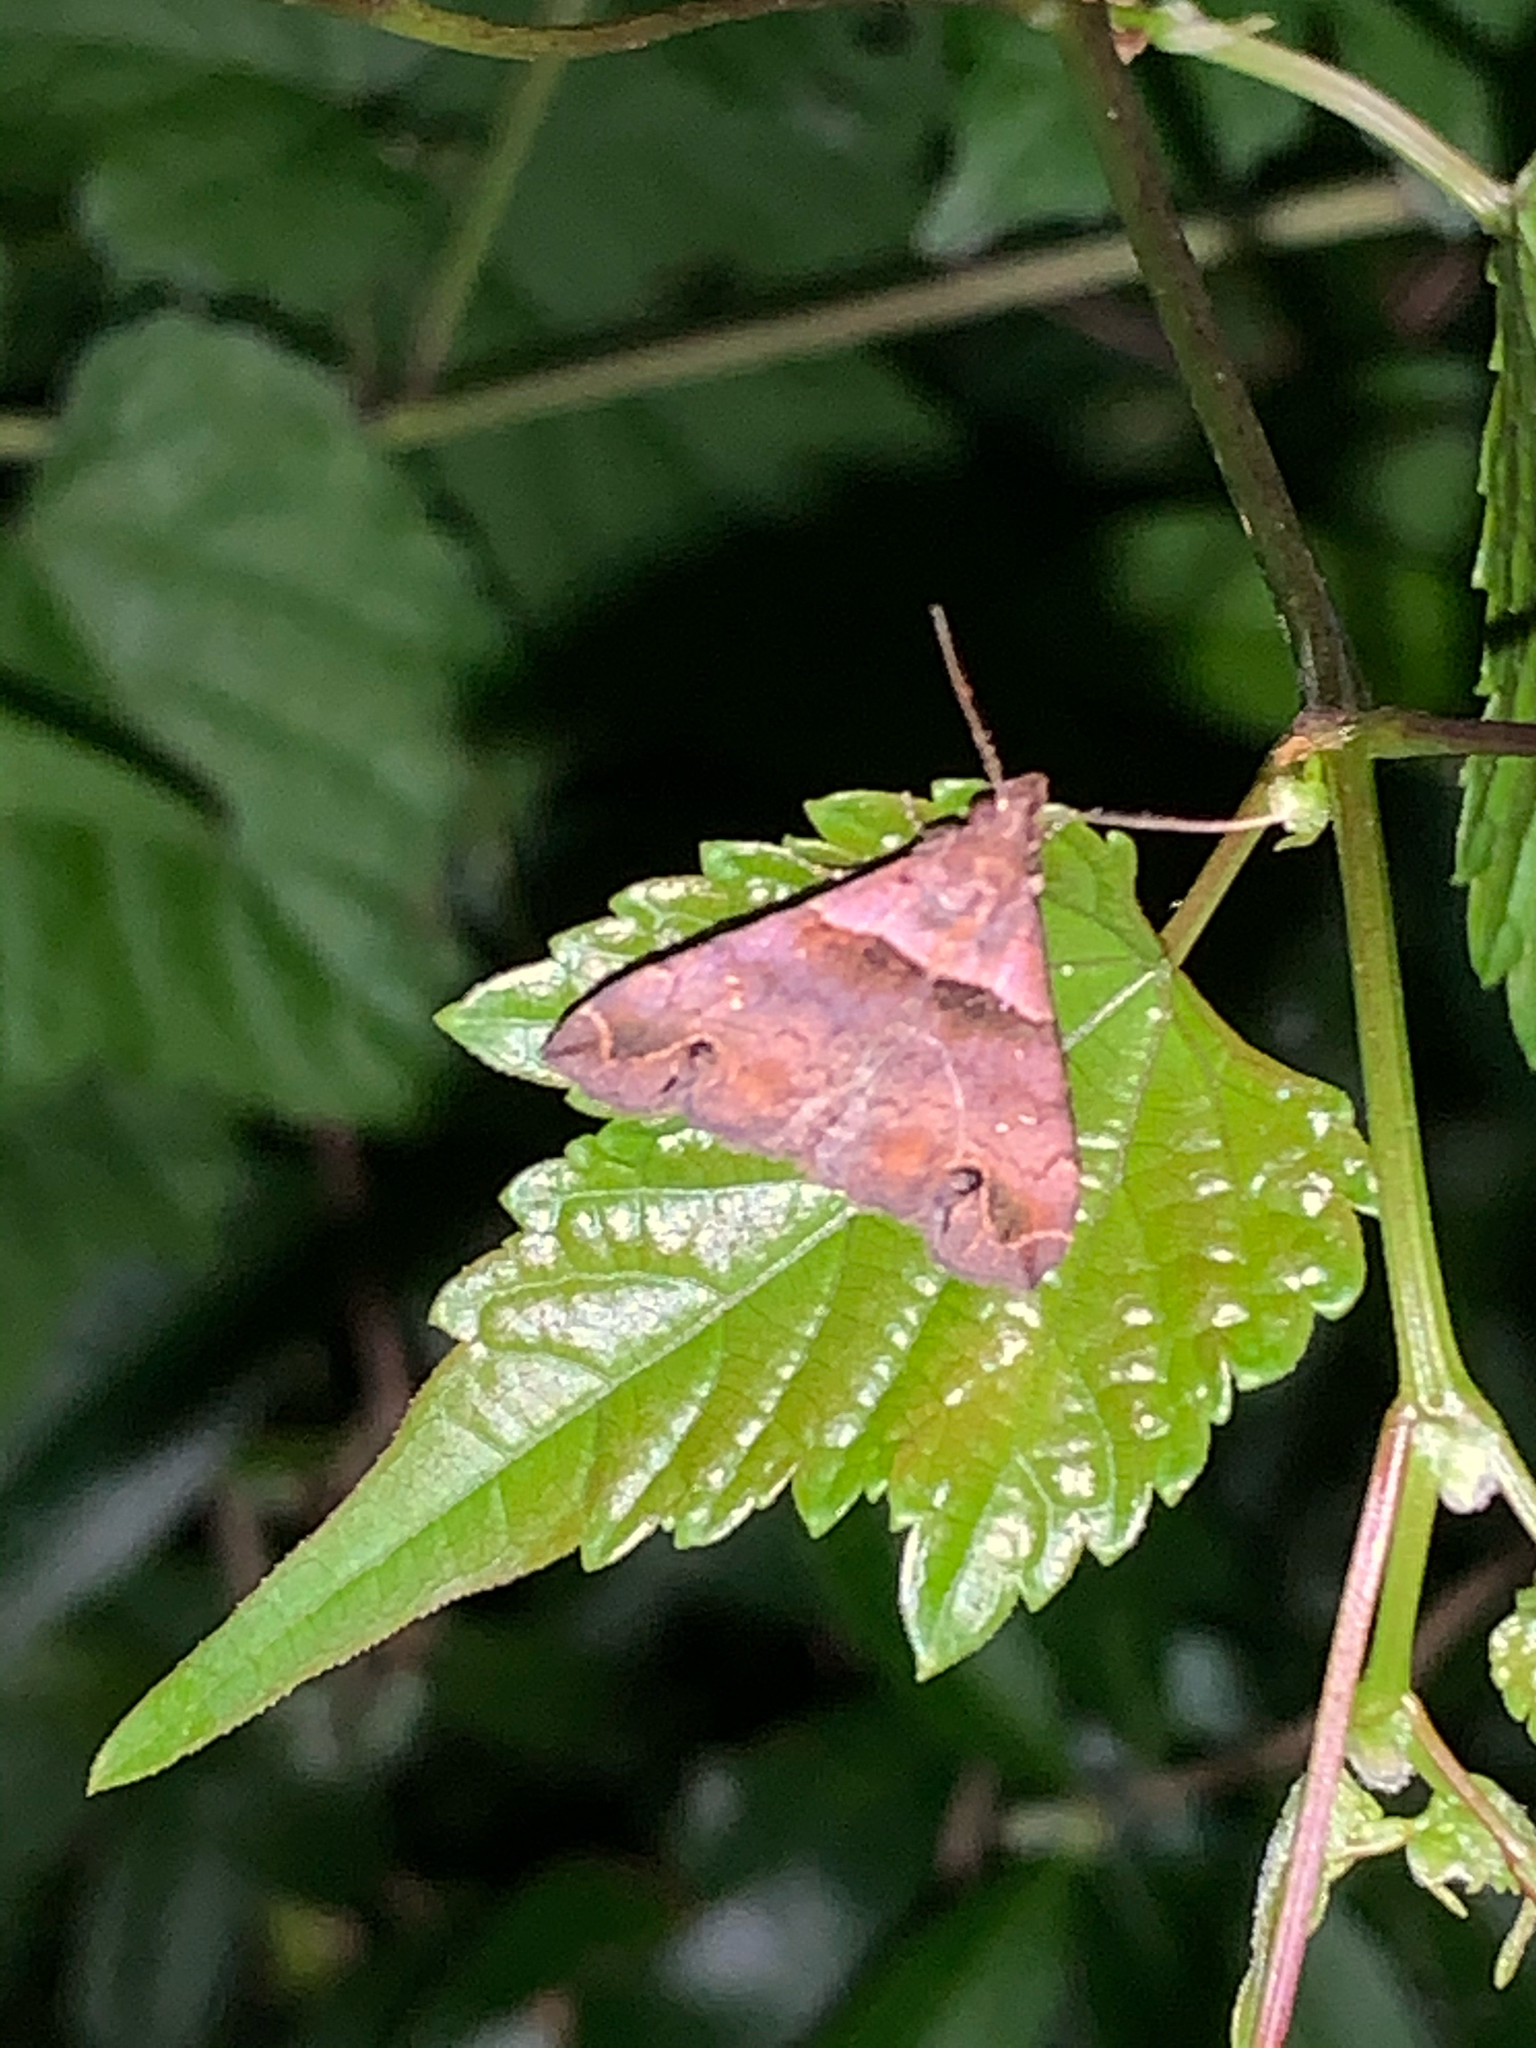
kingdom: Animalia
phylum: Arthropoda
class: Insecta
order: Lepidoptera
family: Erebidae
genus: Lascoria
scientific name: Lascoria ambigualis
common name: Ambiguous moth
